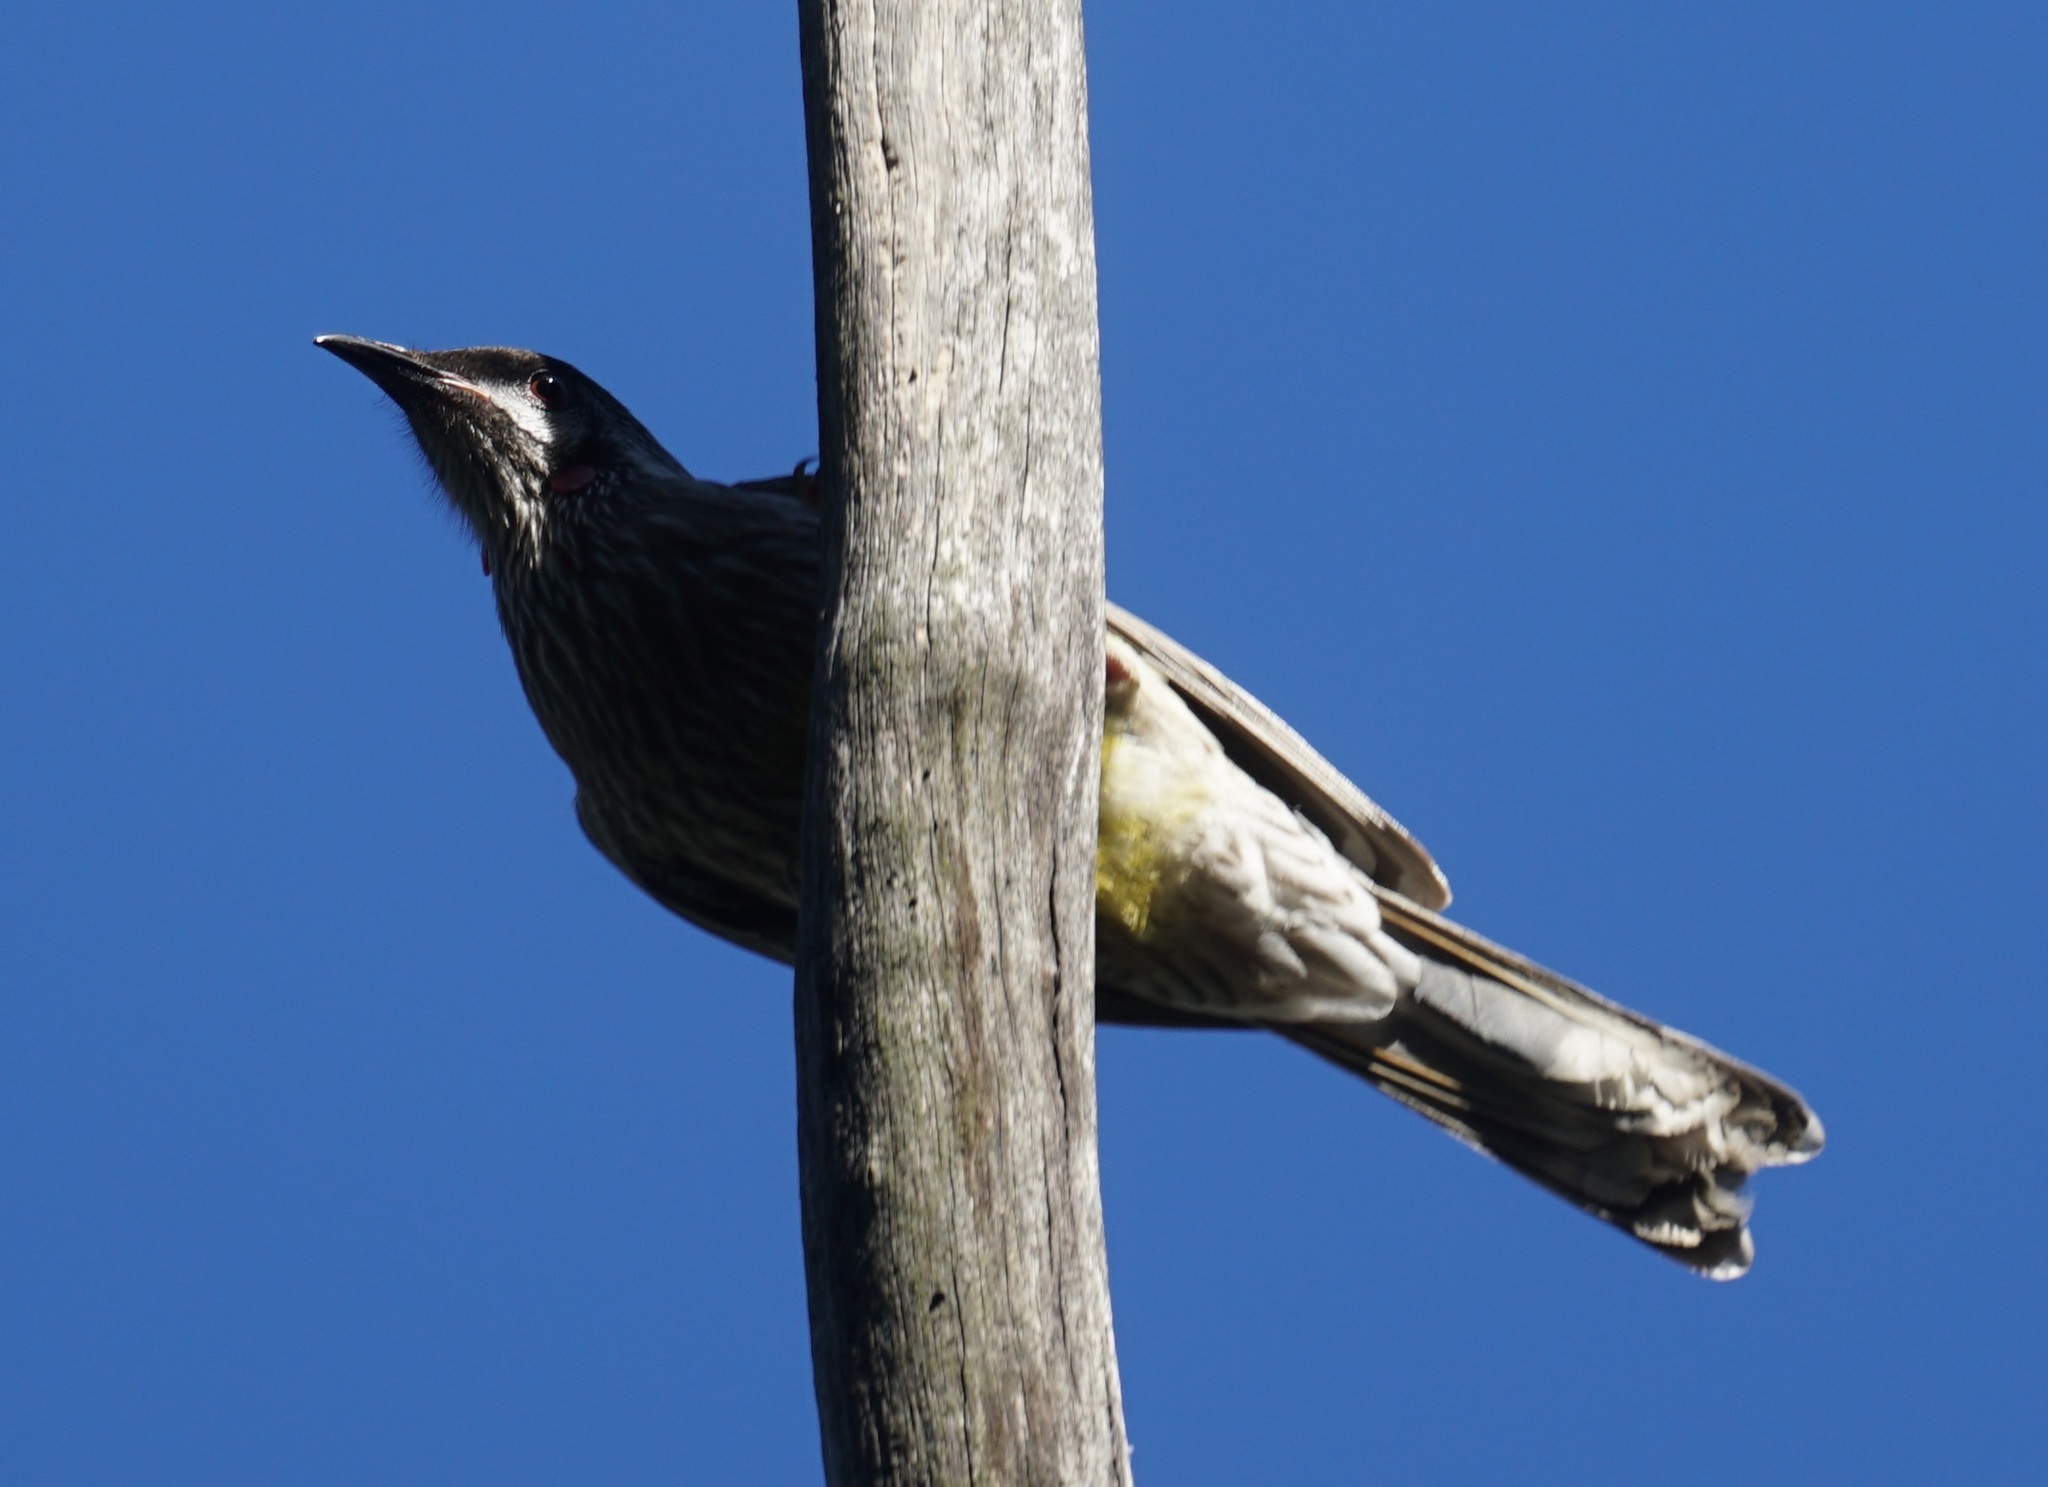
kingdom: Animalia
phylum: Chordata
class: Aves
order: Passeriformes
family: Meliphagidae
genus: Anthochaera
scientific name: Anthochaera carunculata
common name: Red wattlebird
